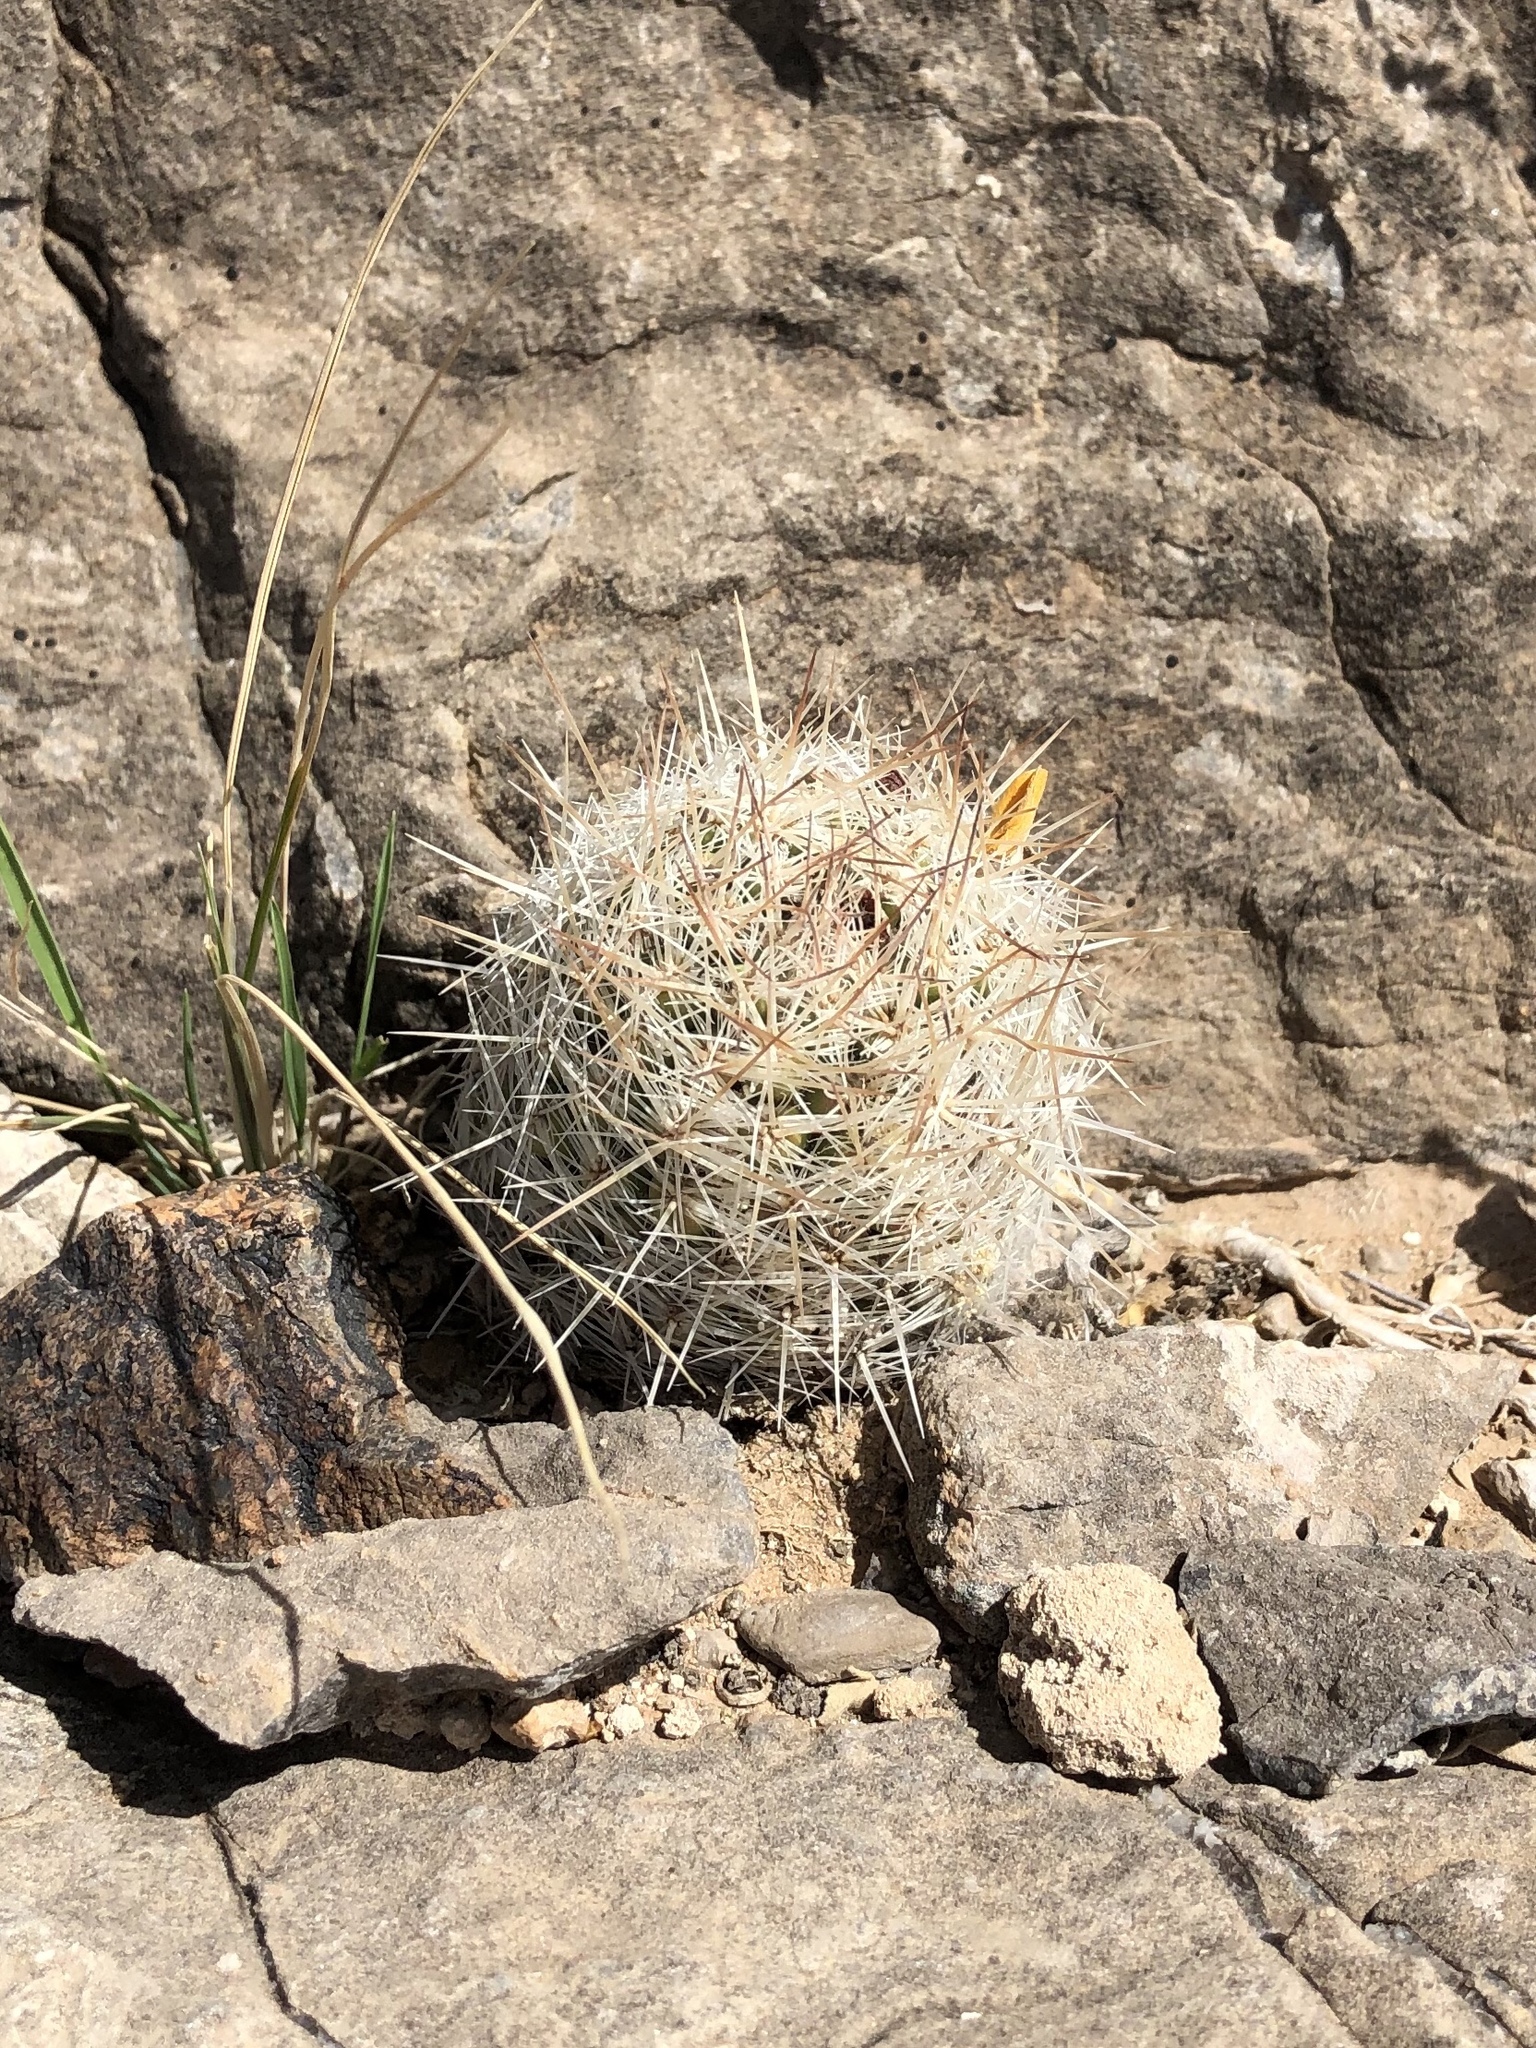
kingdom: Plantae
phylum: Tracheophyta
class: Magnoliopsida
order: Caryophyllales
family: Cactaceae
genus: Pelecyphora
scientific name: Pelecyphora tuberculosa
